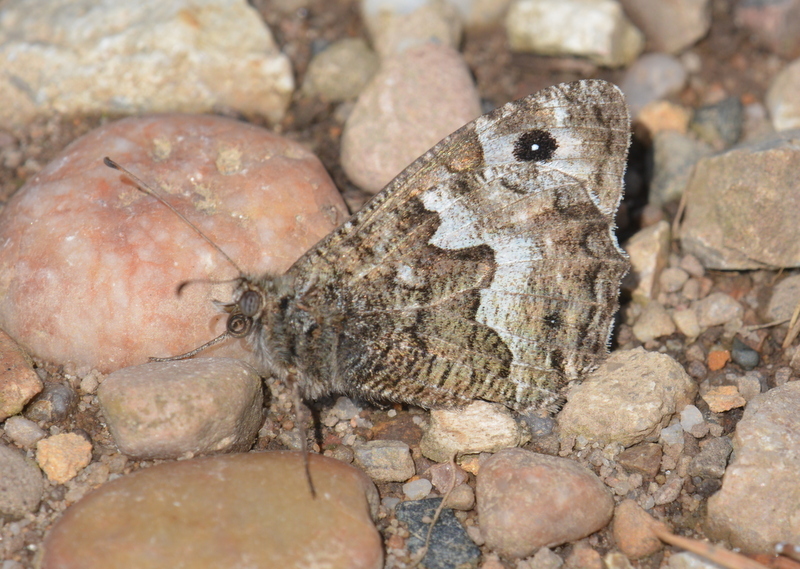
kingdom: Animalia
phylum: Arthropoda
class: Insecta
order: Lepidoptera
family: Nymphalidae
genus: Hipparchia
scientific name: Hipparchia semele
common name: Grayling
